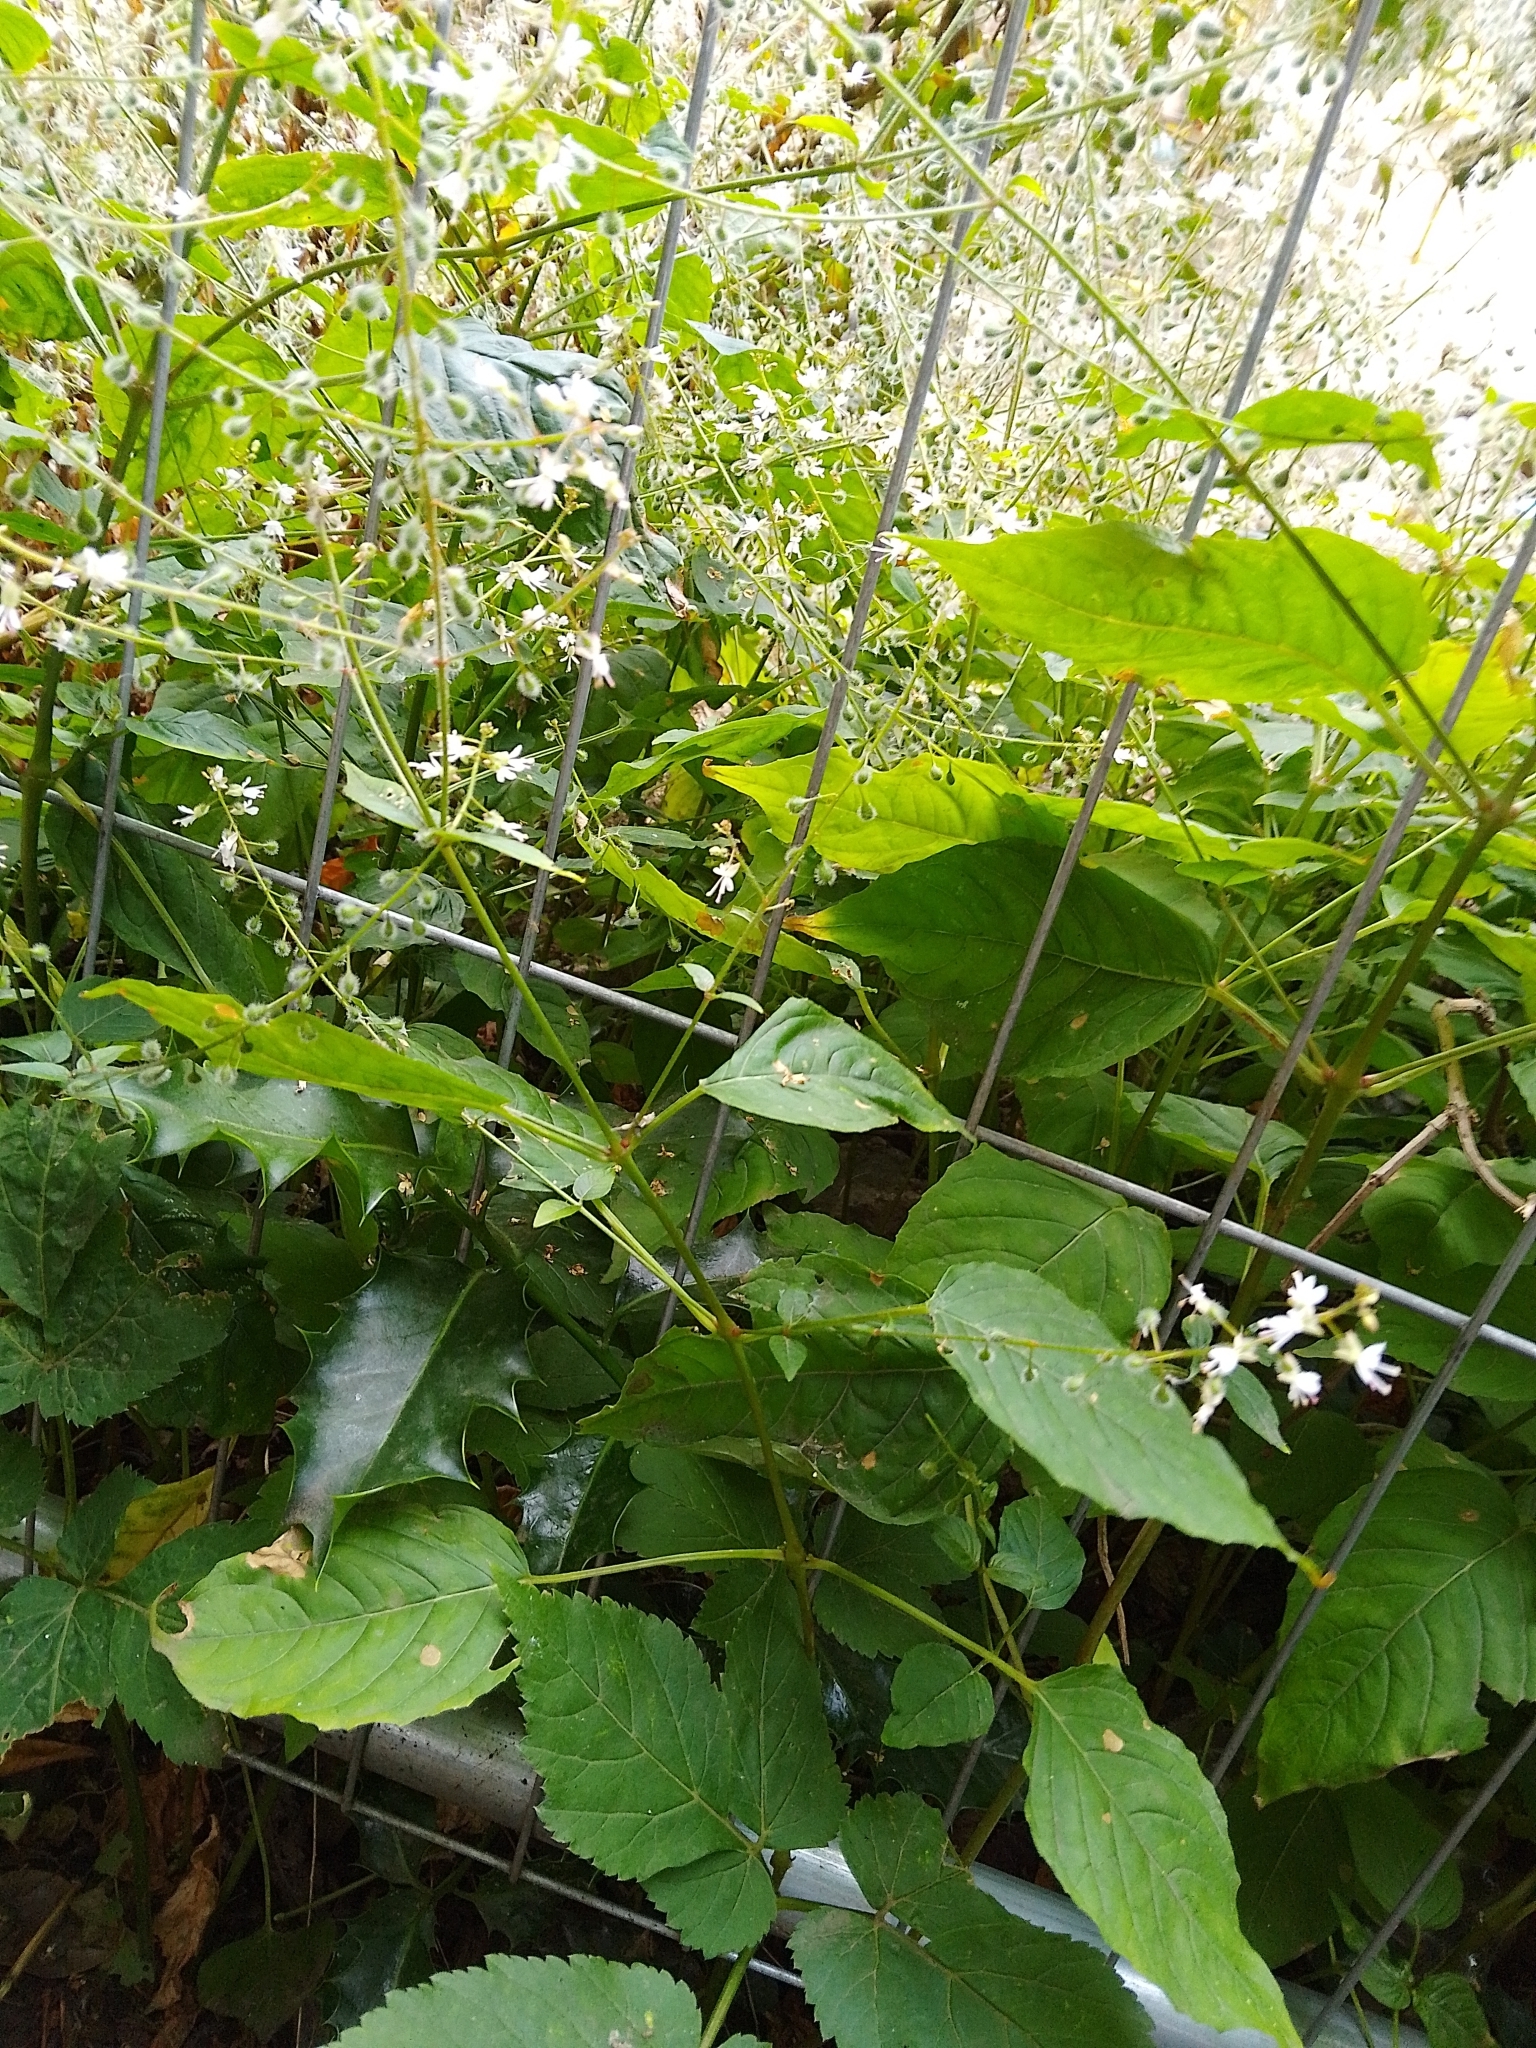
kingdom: Plantae
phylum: Tracheophyta
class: Magnoliopsida
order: Myrtales
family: Onagraceae
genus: Circaea
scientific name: Circaea lutetiana
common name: Enchanter's-nightshade
